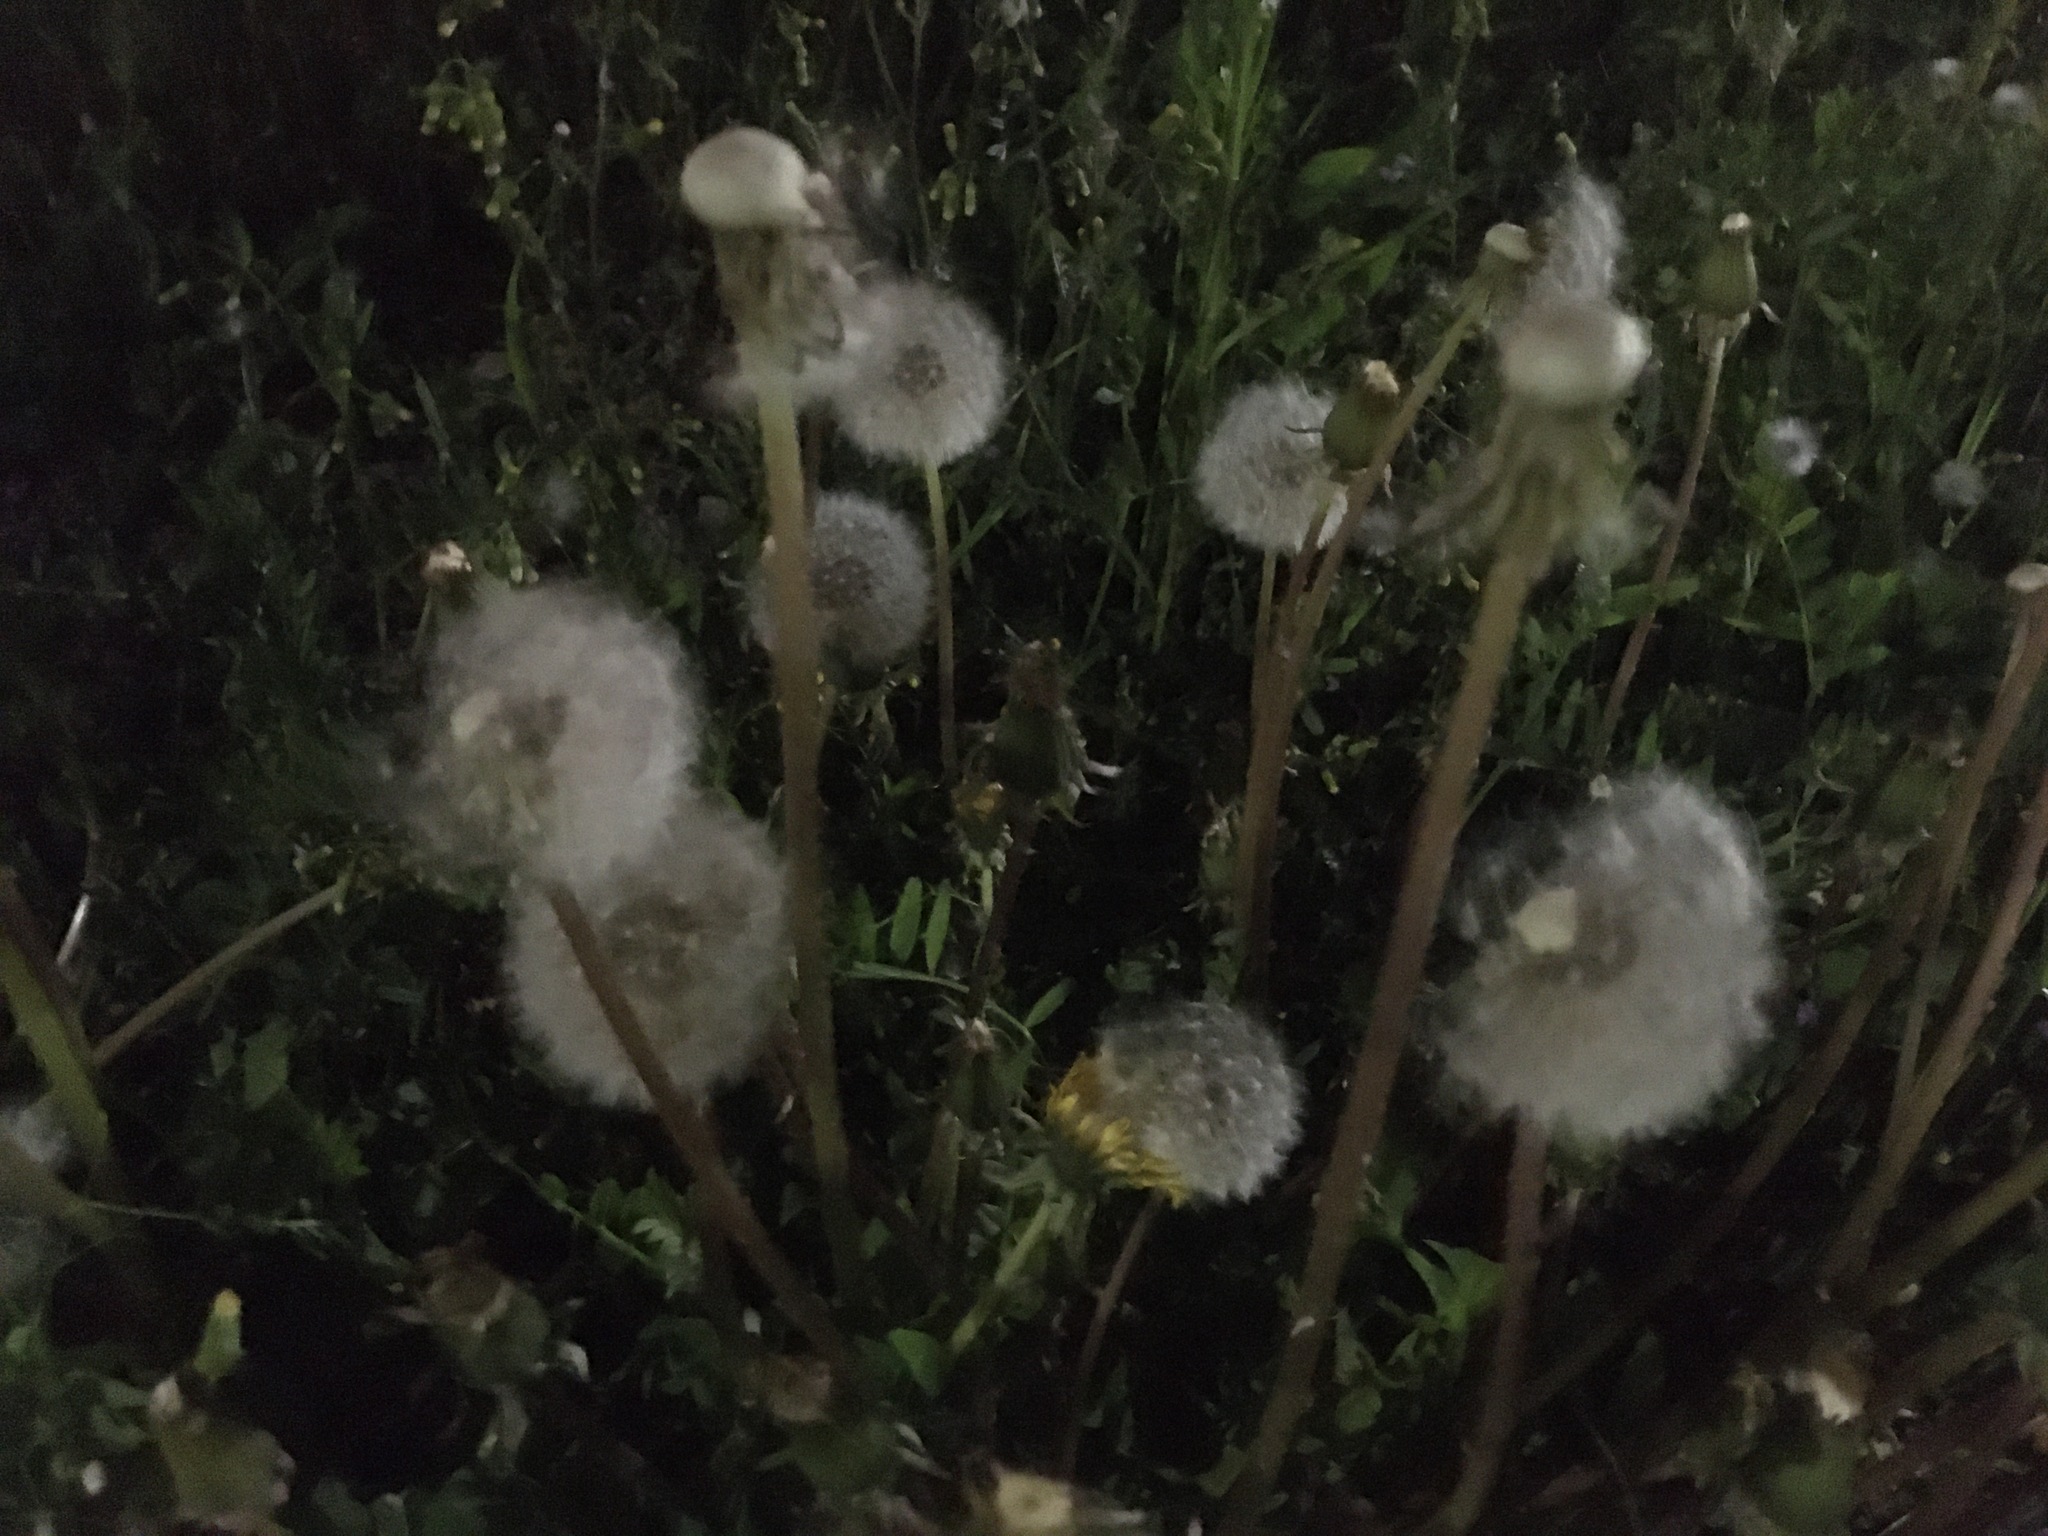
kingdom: Plantae
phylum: Tracheophyta
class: Magnoliopsida
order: Asterales
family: Asteraceae
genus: Taraxacum
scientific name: Taraxacum officinale
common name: Common dandelion
